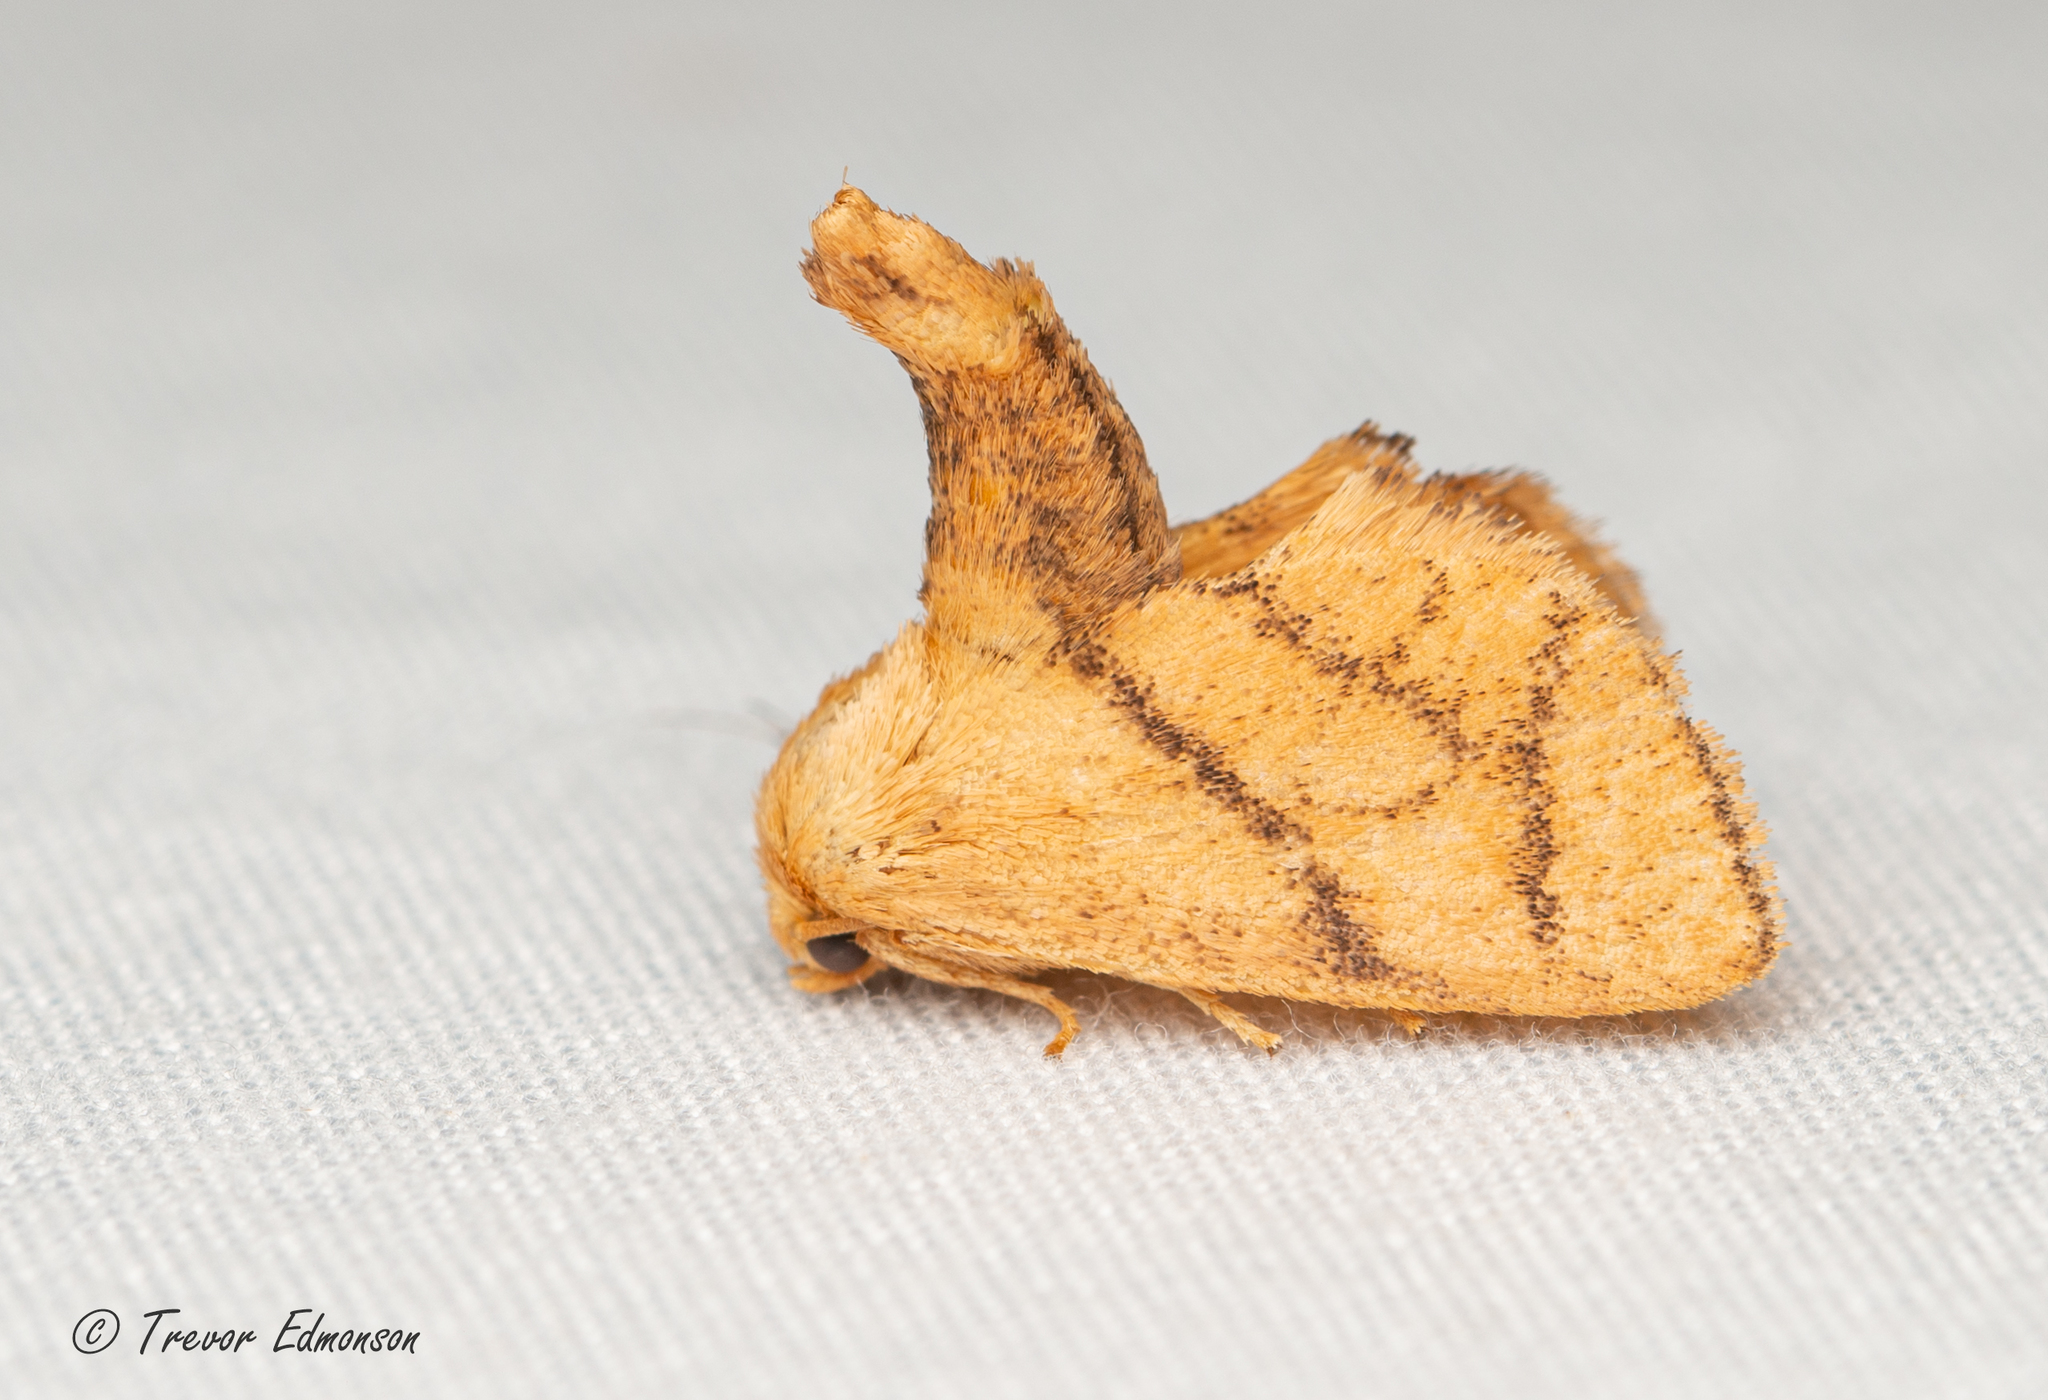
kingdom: Animalia
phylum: Arthropoda
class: Insecta
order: Lepidoptera
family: Limacodidae
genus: Apoda
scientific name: Apoda y-inversa
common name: Yellow-collared slug moth
